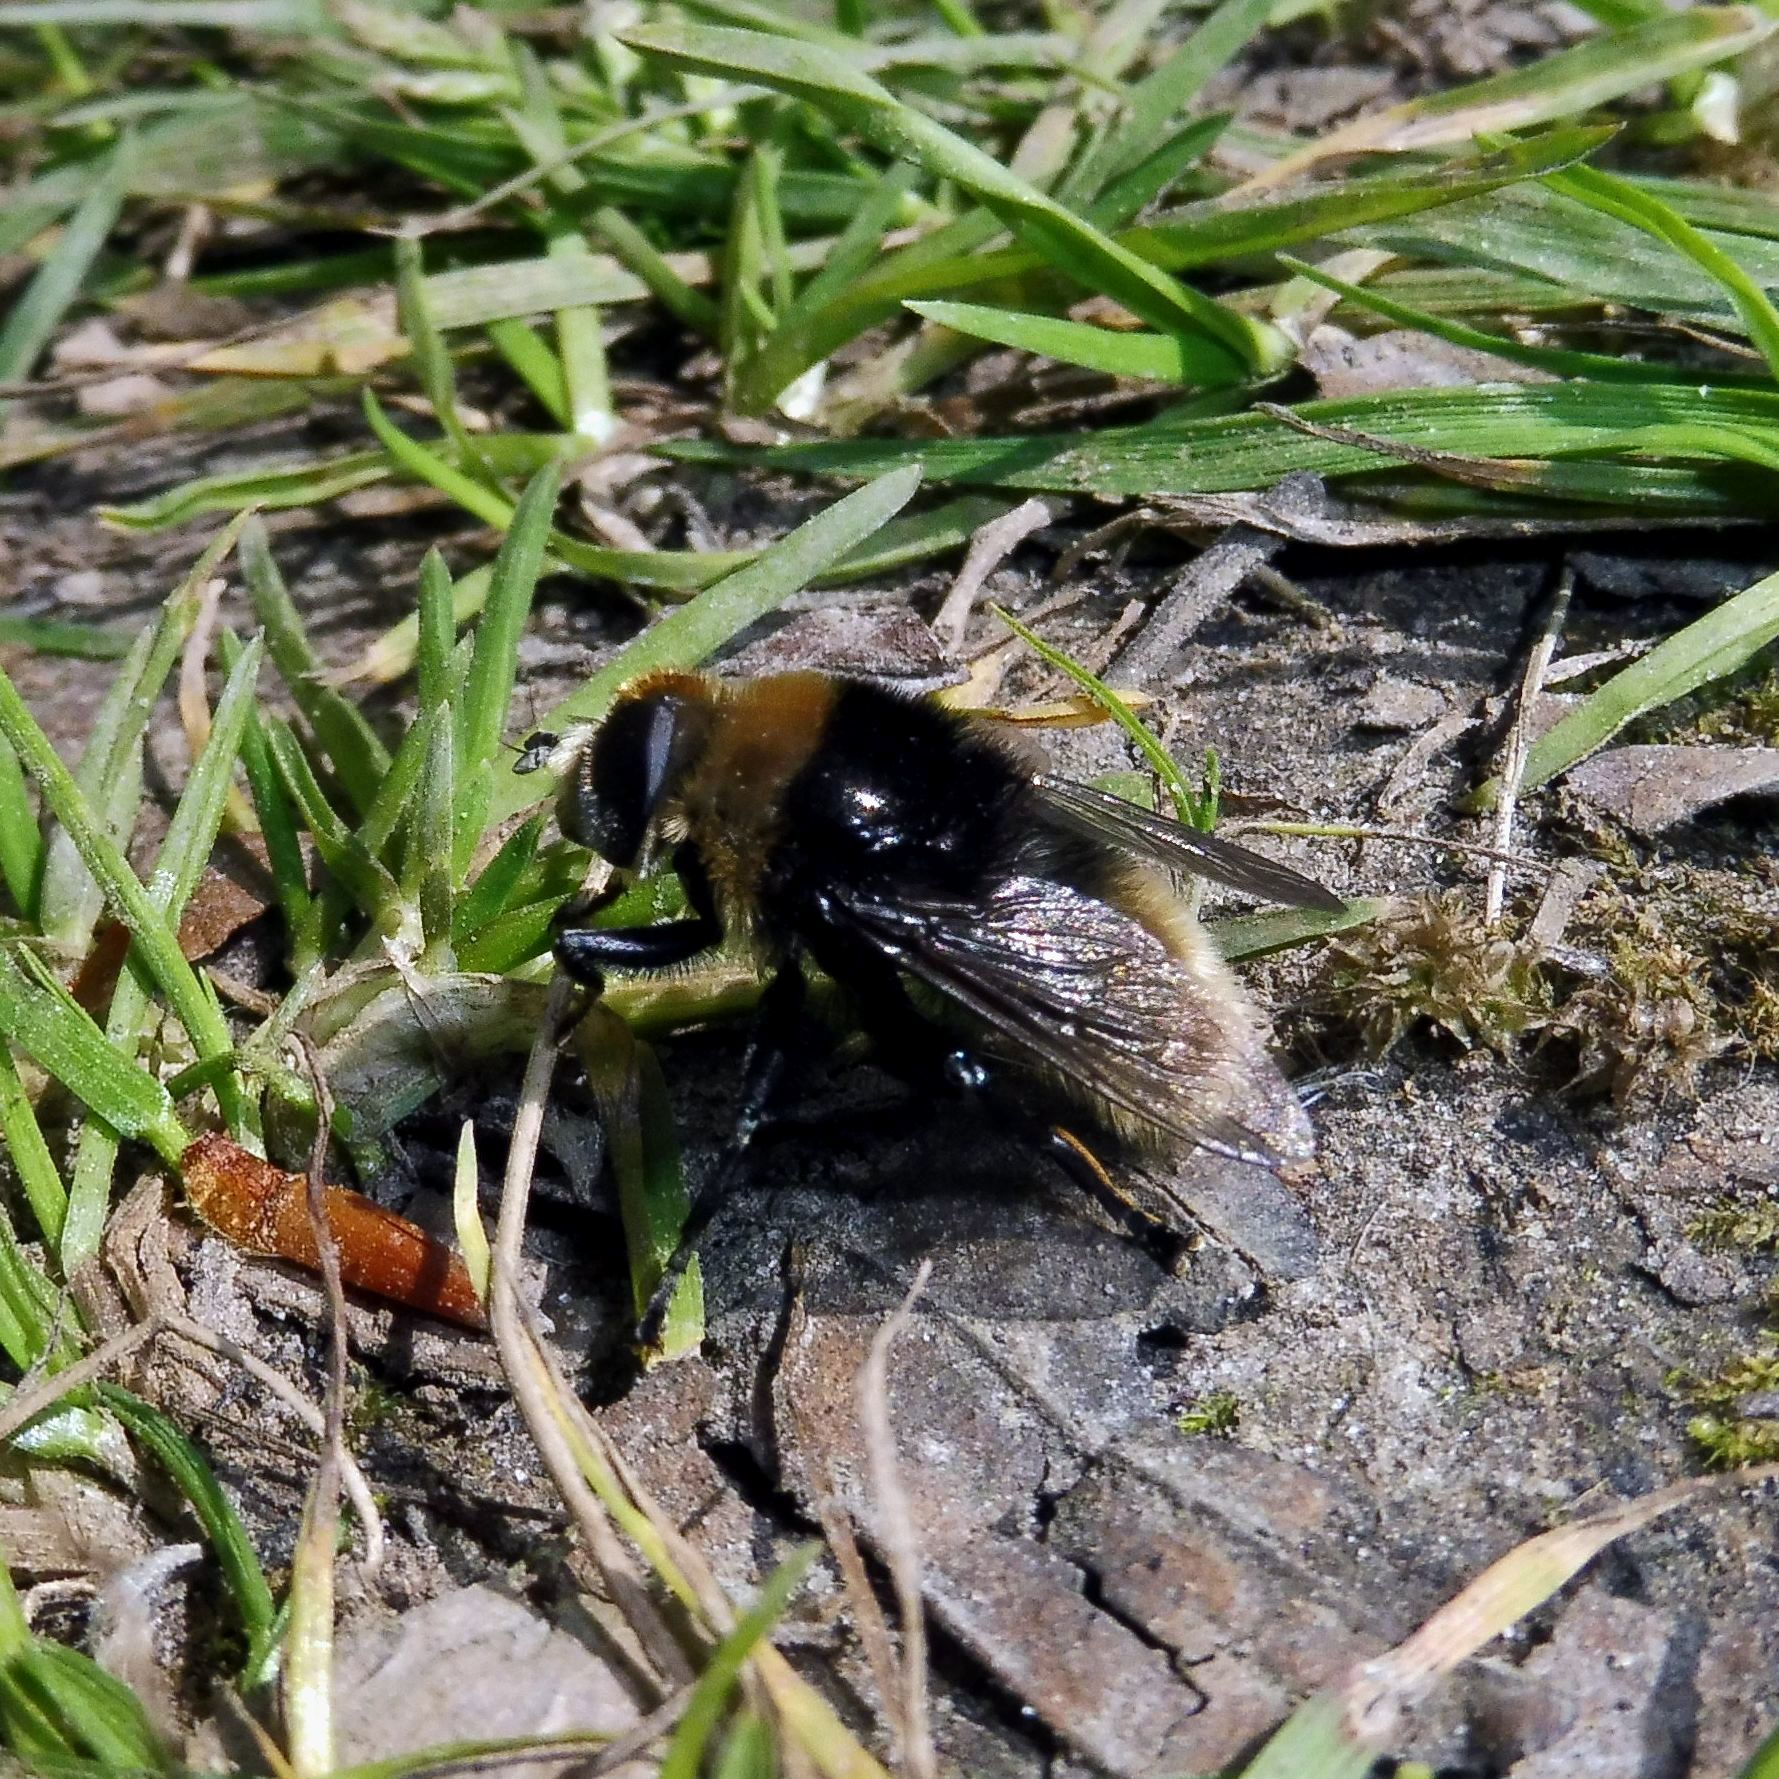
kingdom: Animalia
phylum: Arthropoda
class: Insecta
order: Diptera
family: Syrphidae
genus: Merodon
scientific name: Merodon equestris
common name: Greater bulb-fly
